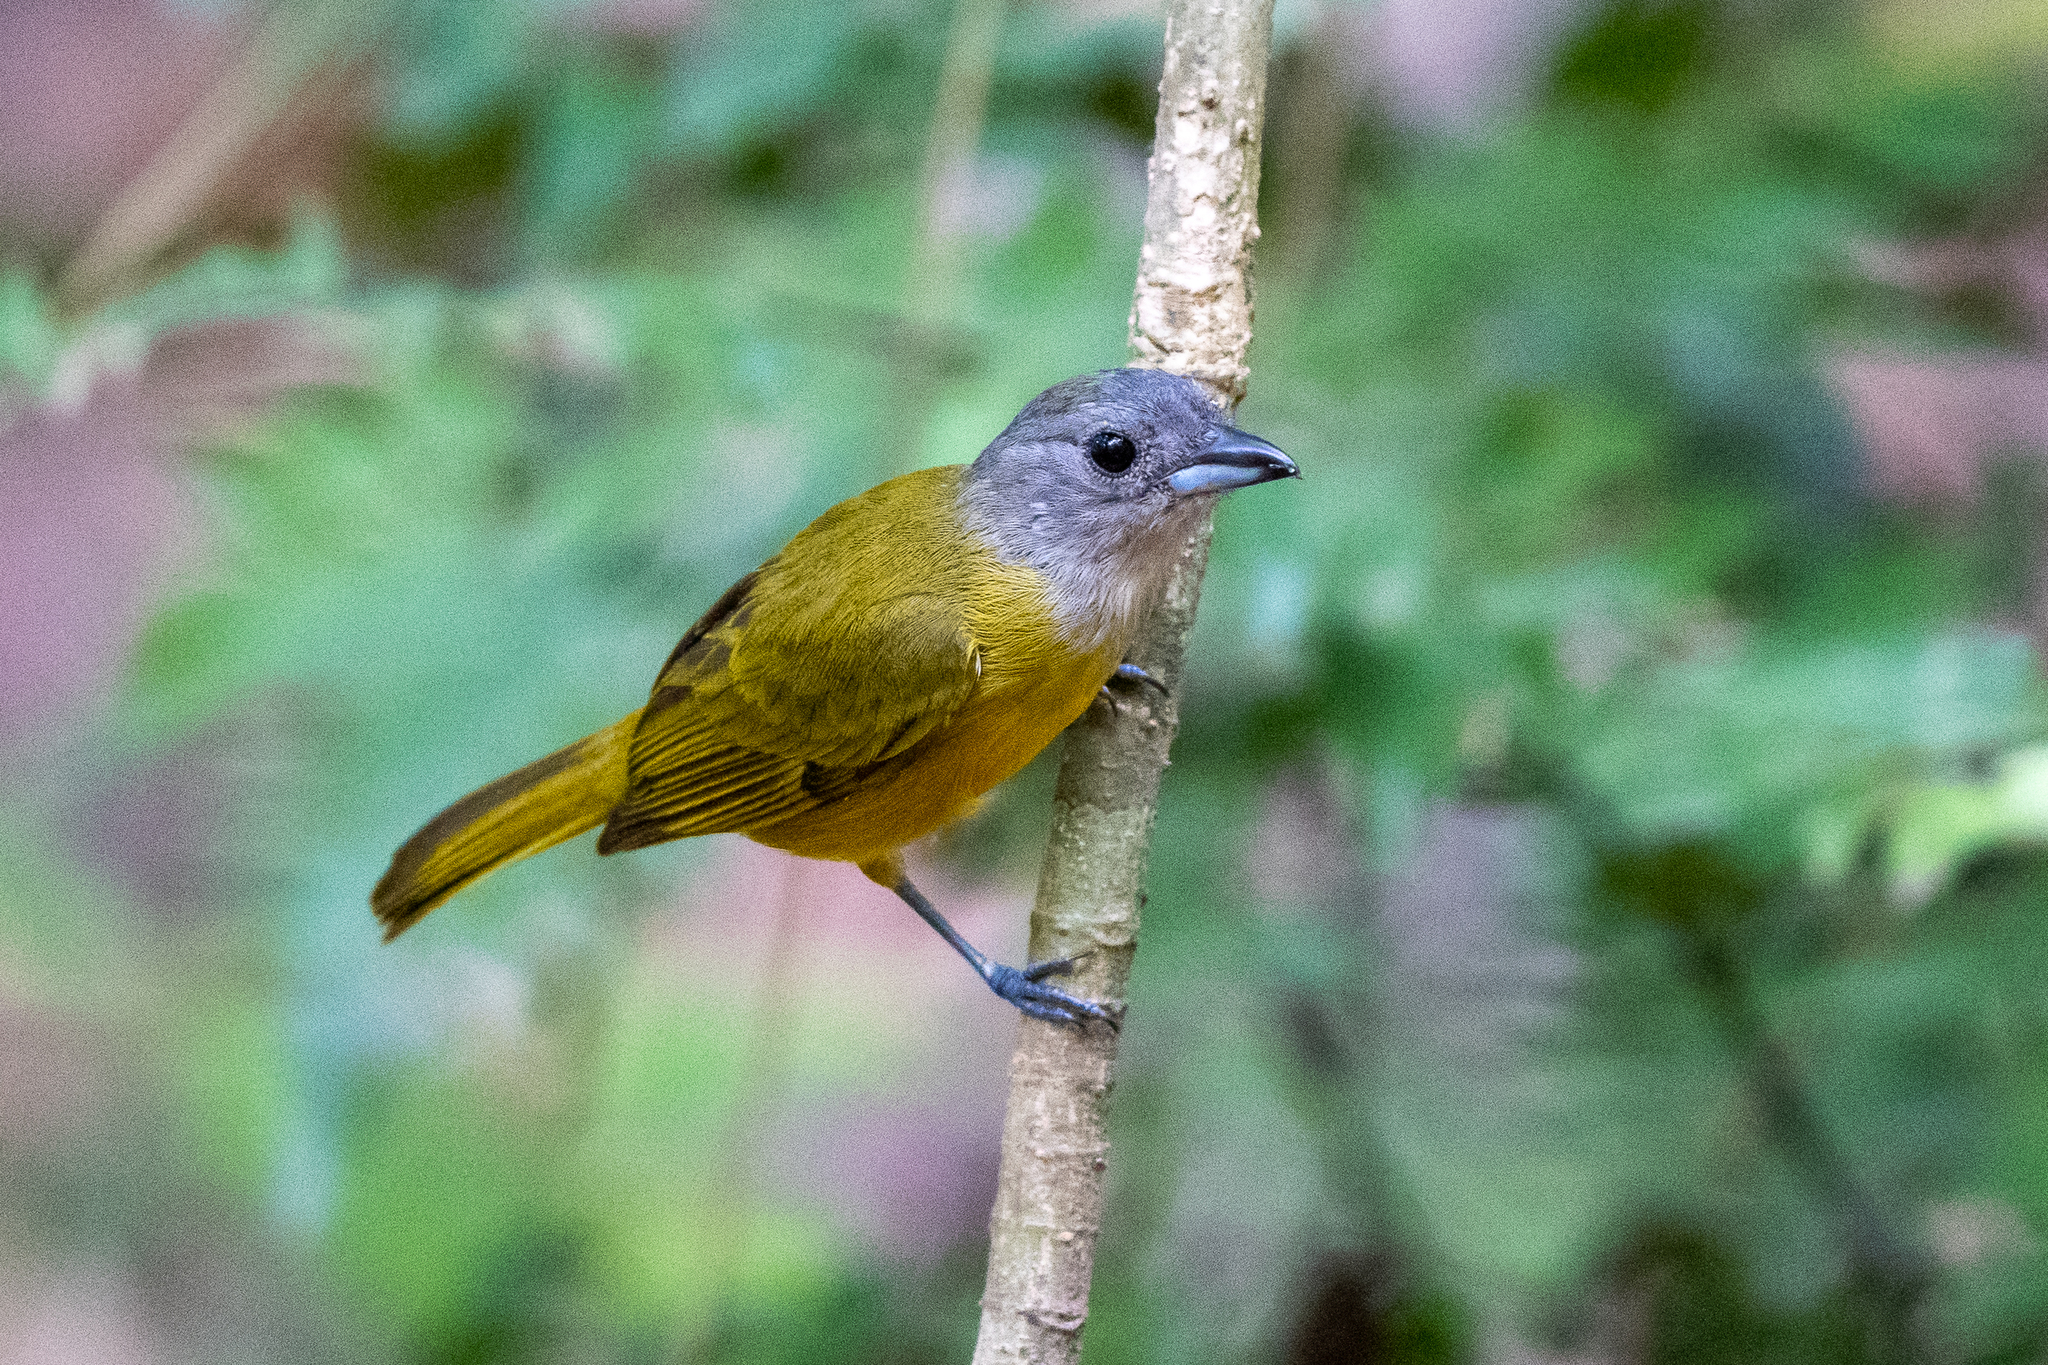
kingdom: Animalia
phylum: Chordata
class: Aves
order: Passeriformes
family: Thraupidae
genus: Loriotus
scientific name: Loriotus luctuosus
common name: White-shouldered tanager
